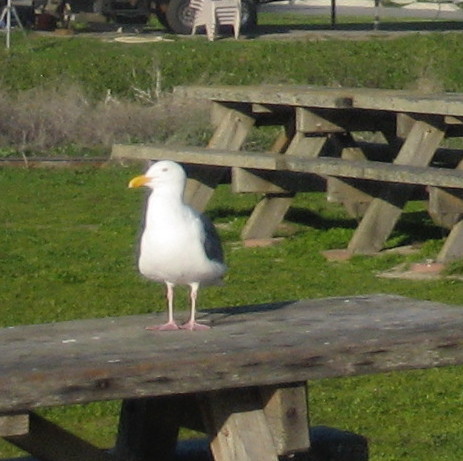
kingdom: Animalia
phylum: Chordata
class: Aves
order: Charadriiformes
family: Laridae
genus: Larus
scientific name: Larus occidentalis
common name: Western gull
